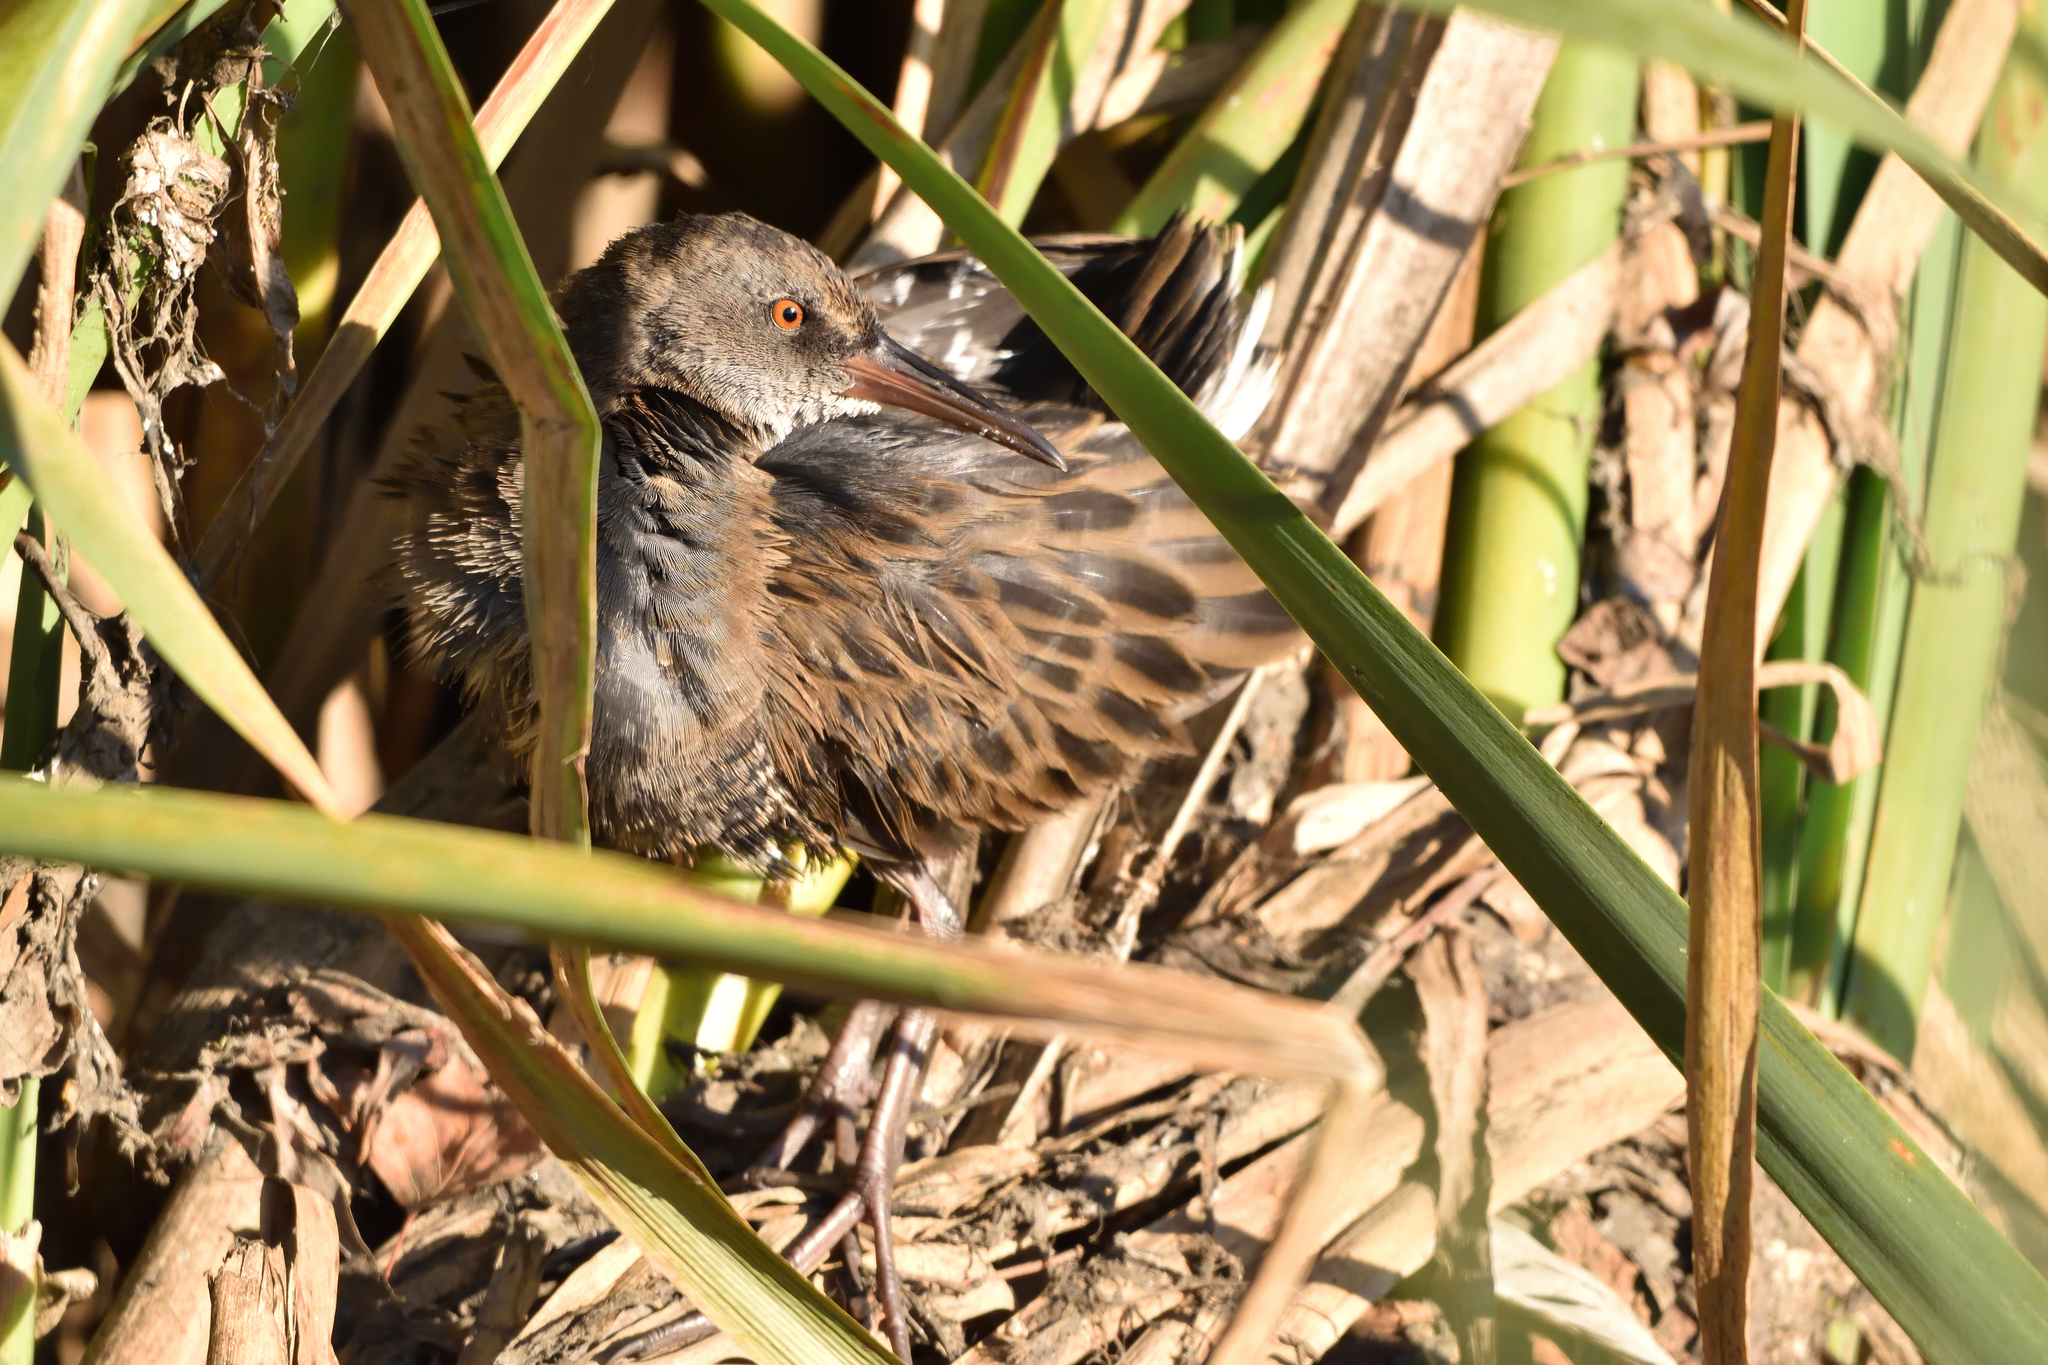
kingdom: Animalia
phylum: Chordata
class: Aves
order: Gruiformes
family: Rallidae
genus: Rallus
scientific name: Rallus aquaticus
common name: Water rail
